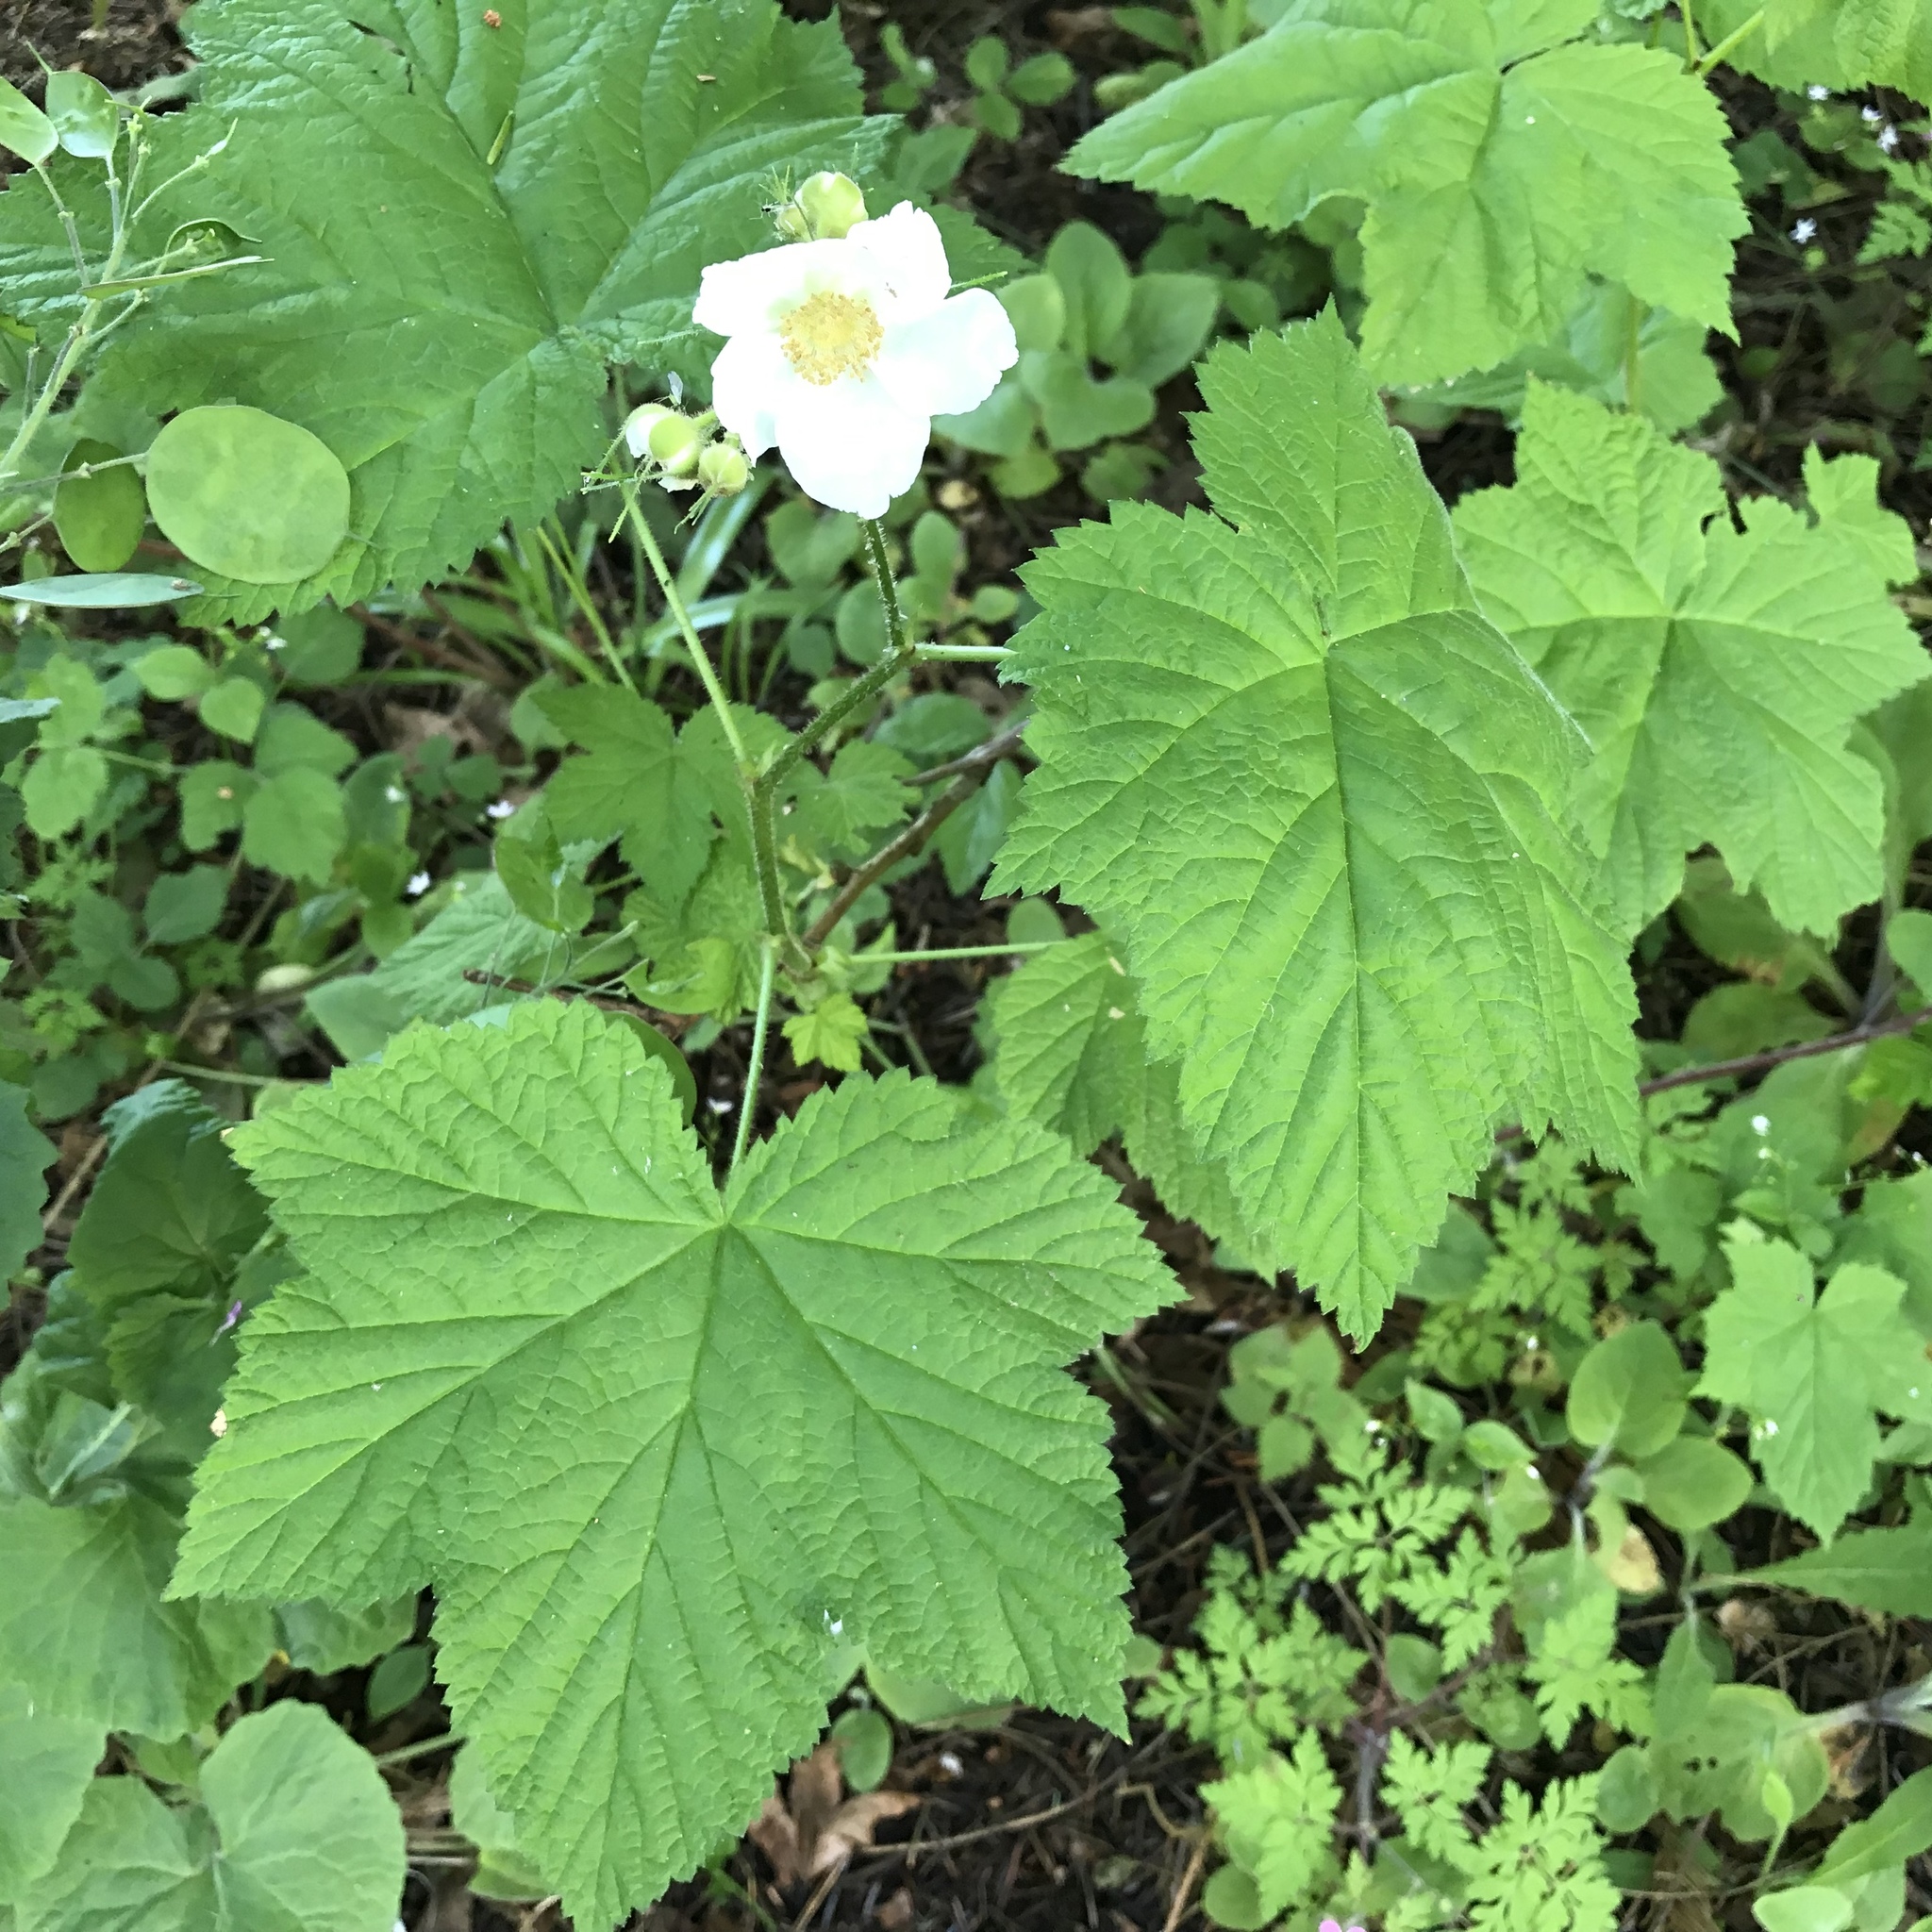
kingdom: Plantae
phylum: Tracheophyta
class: Magnoliopsida
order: Rosales
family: Rosaceae
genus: Rubus
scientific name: Rubus parviflorus
